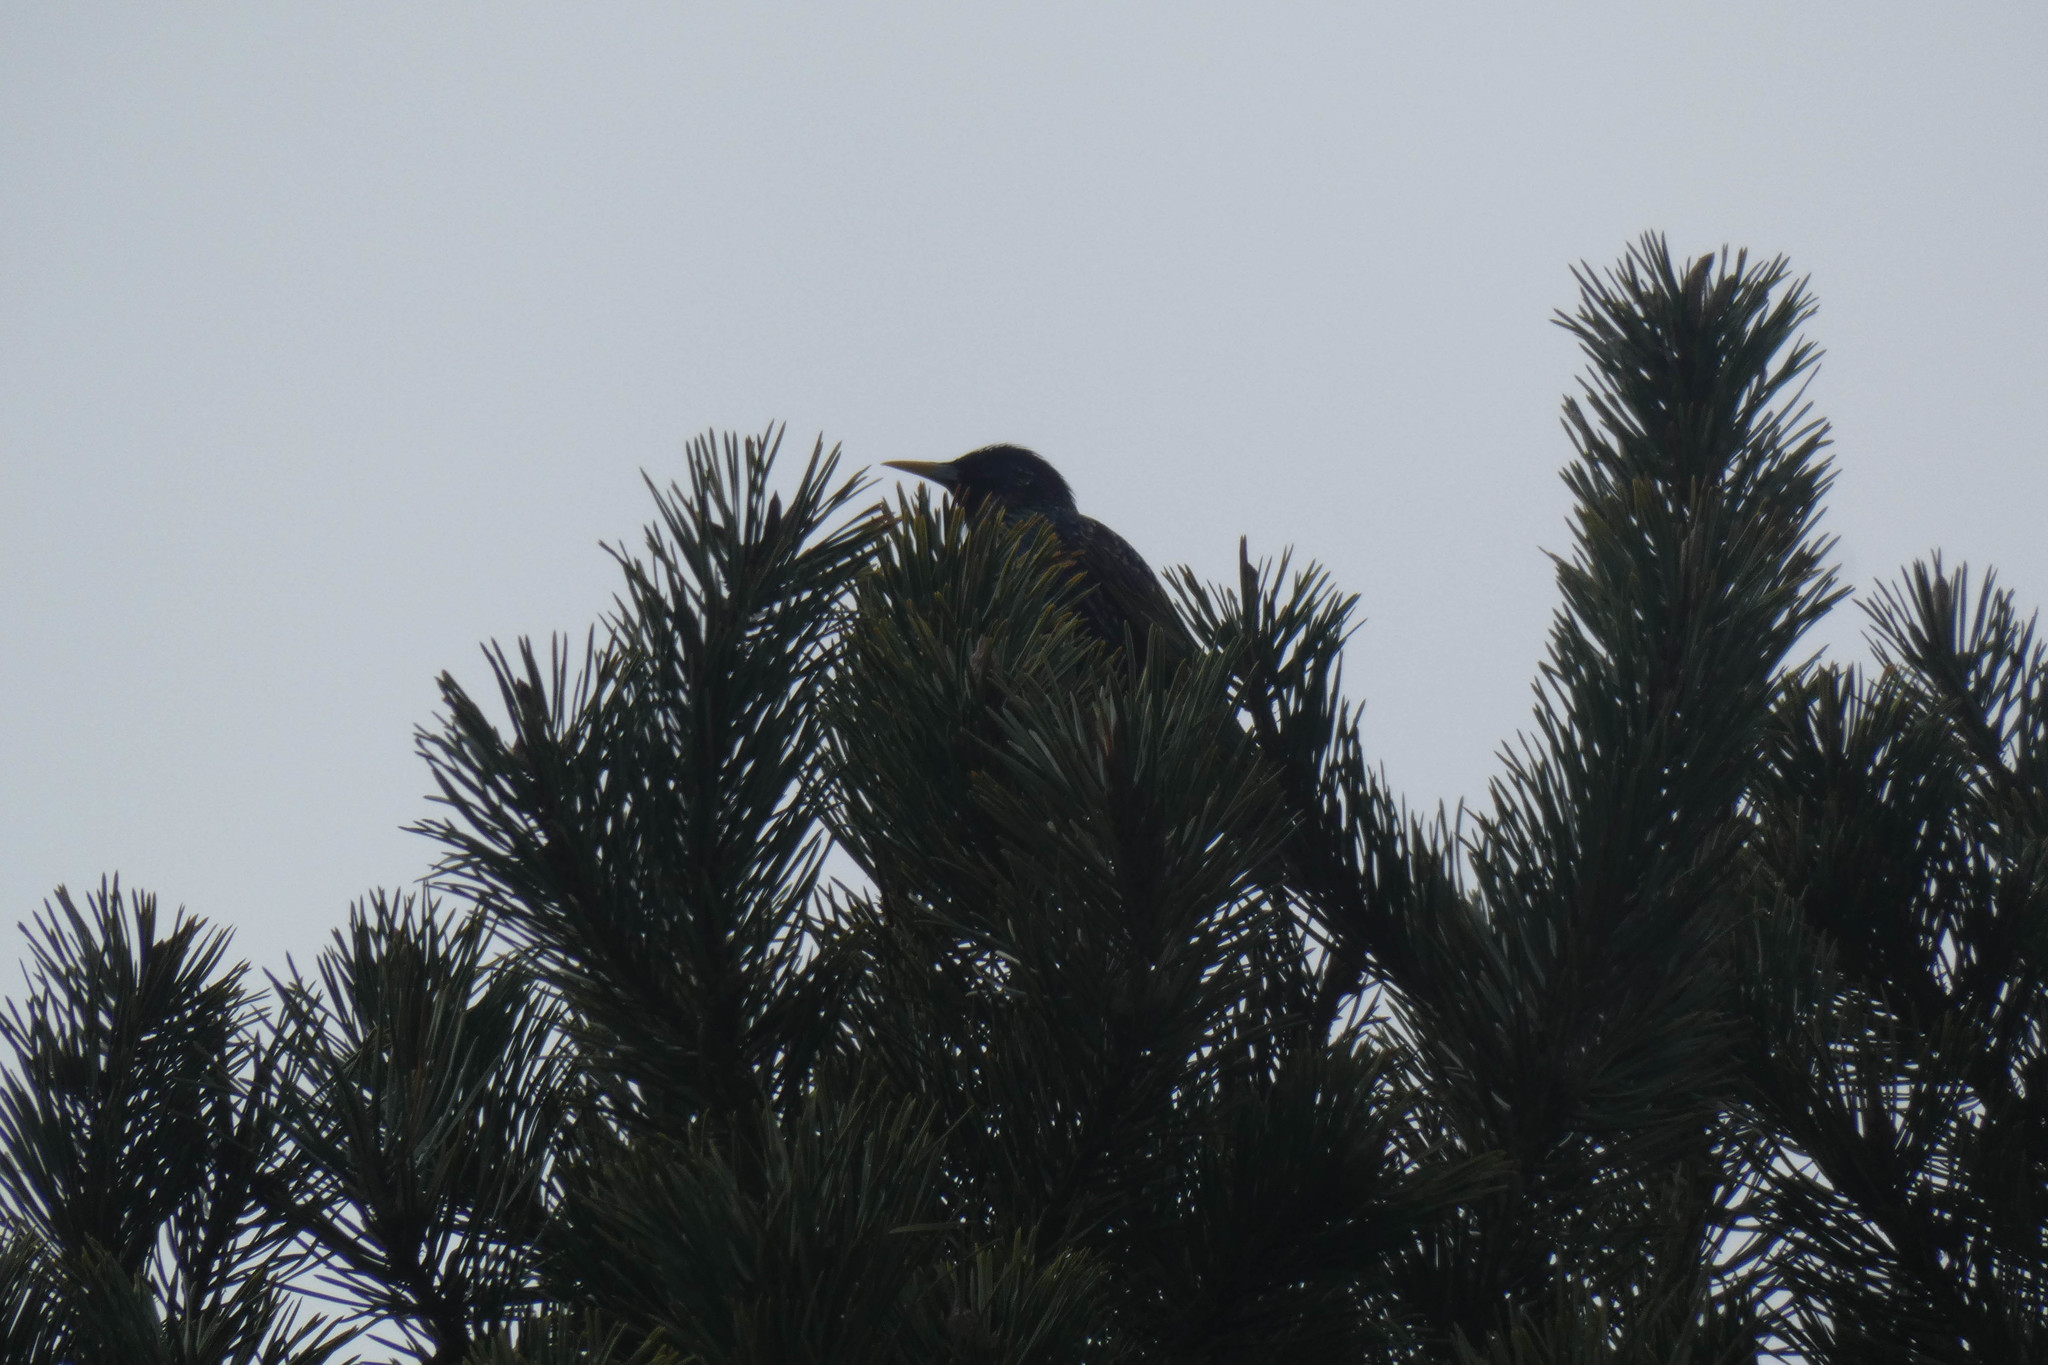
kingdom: Animalia
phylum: Chordata
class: Aves
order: Passeriformes
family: Sturnidae
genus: Sturnus
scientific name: Sturnus vulgaris
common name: Common starling
